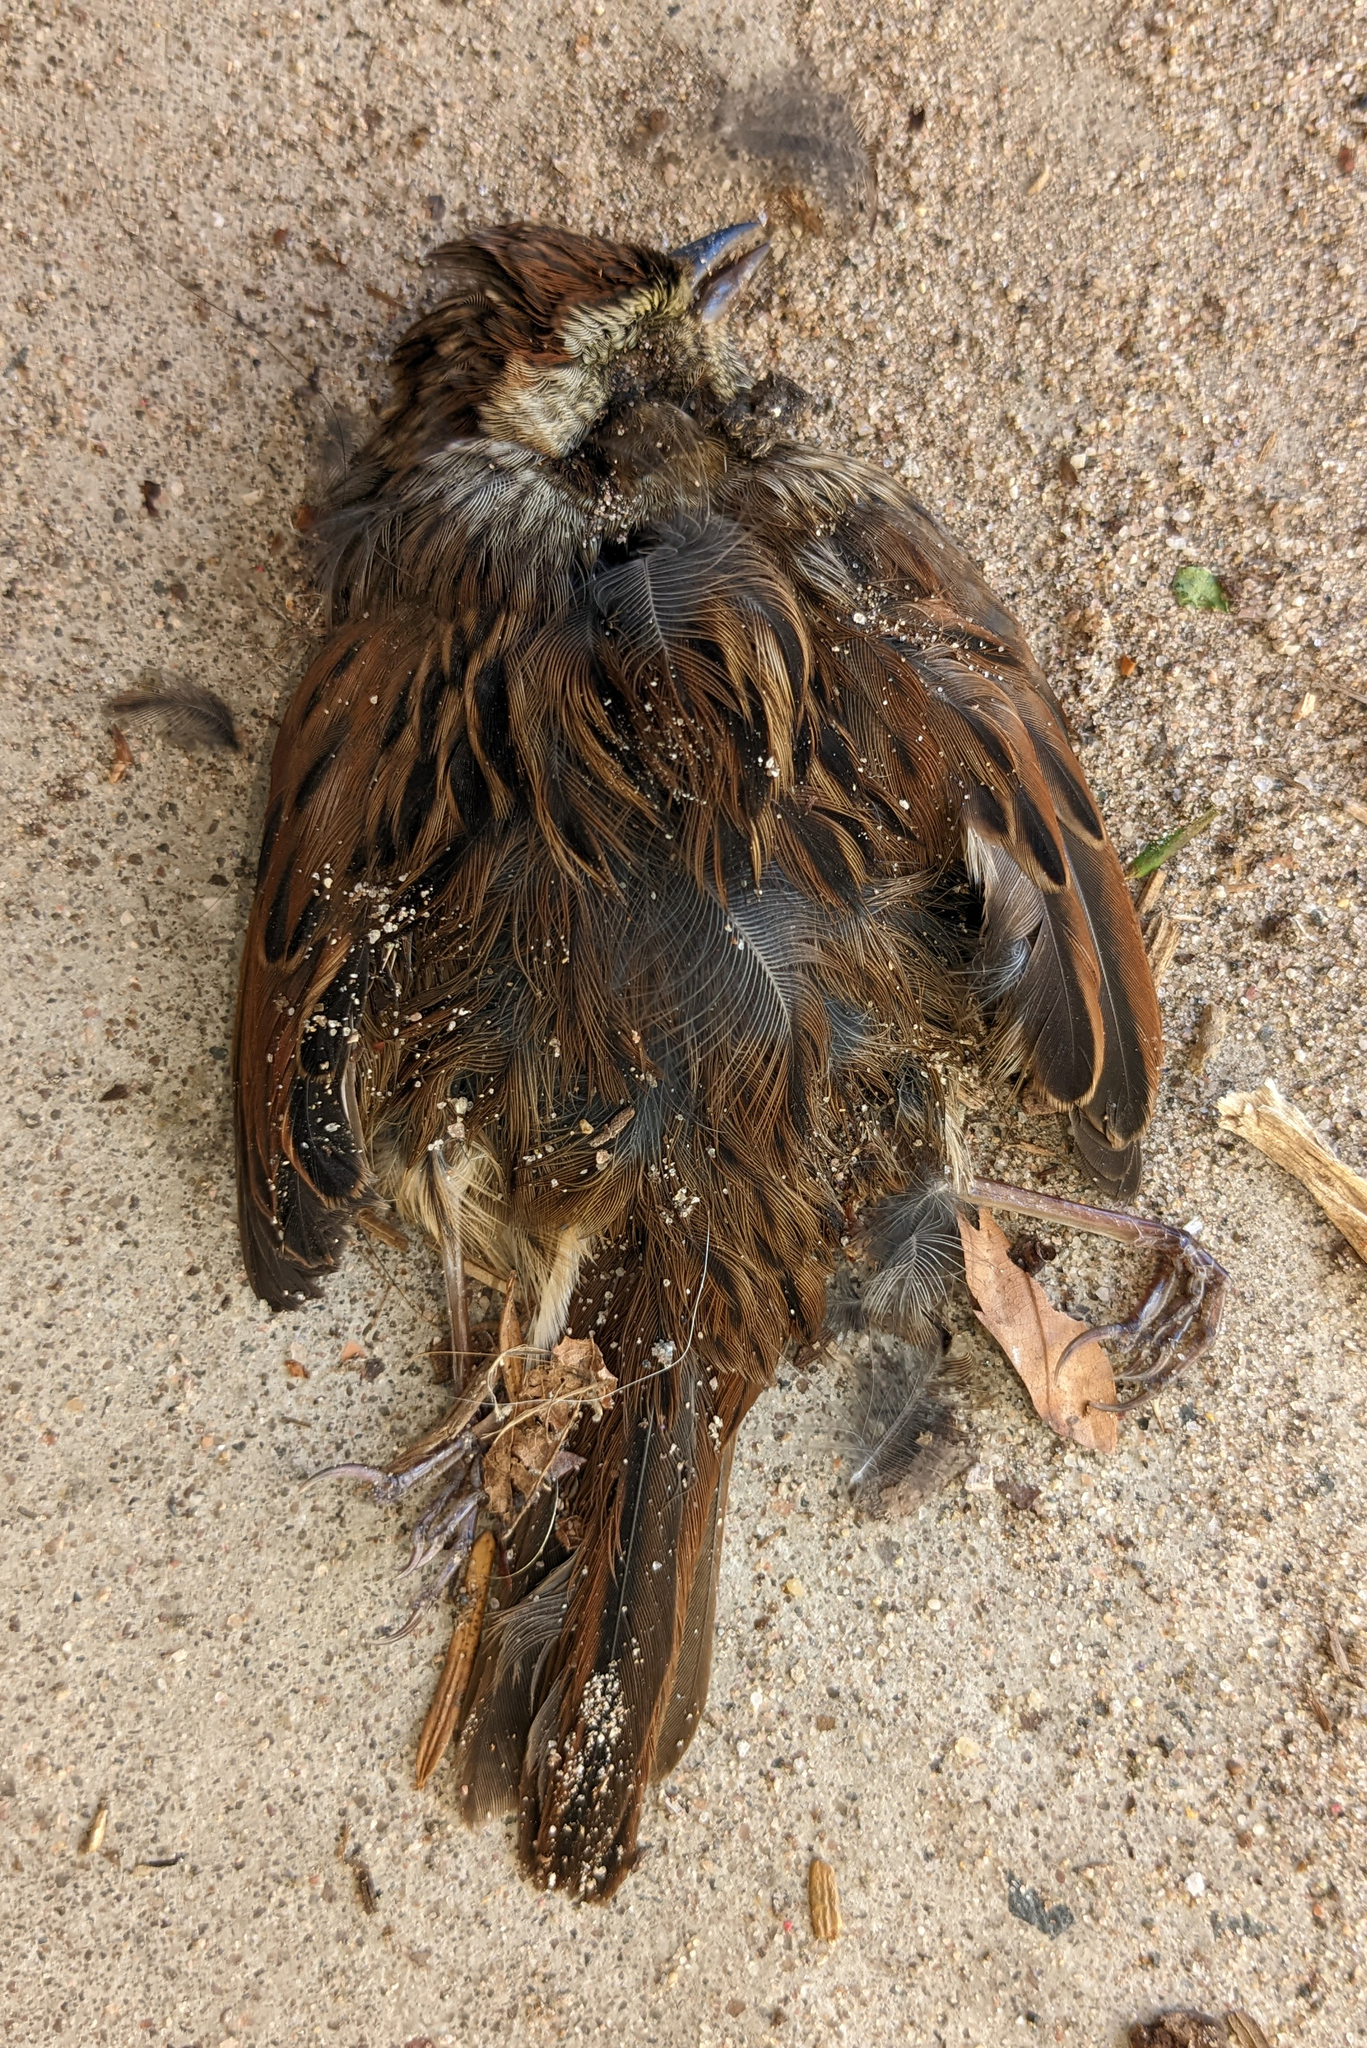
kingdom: Animalia
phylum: Chordata
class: Aves
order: Passeriformes
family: Passerellidae
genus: Melospiza
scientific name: Melospiza georgiana
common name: Swamp sparrow
